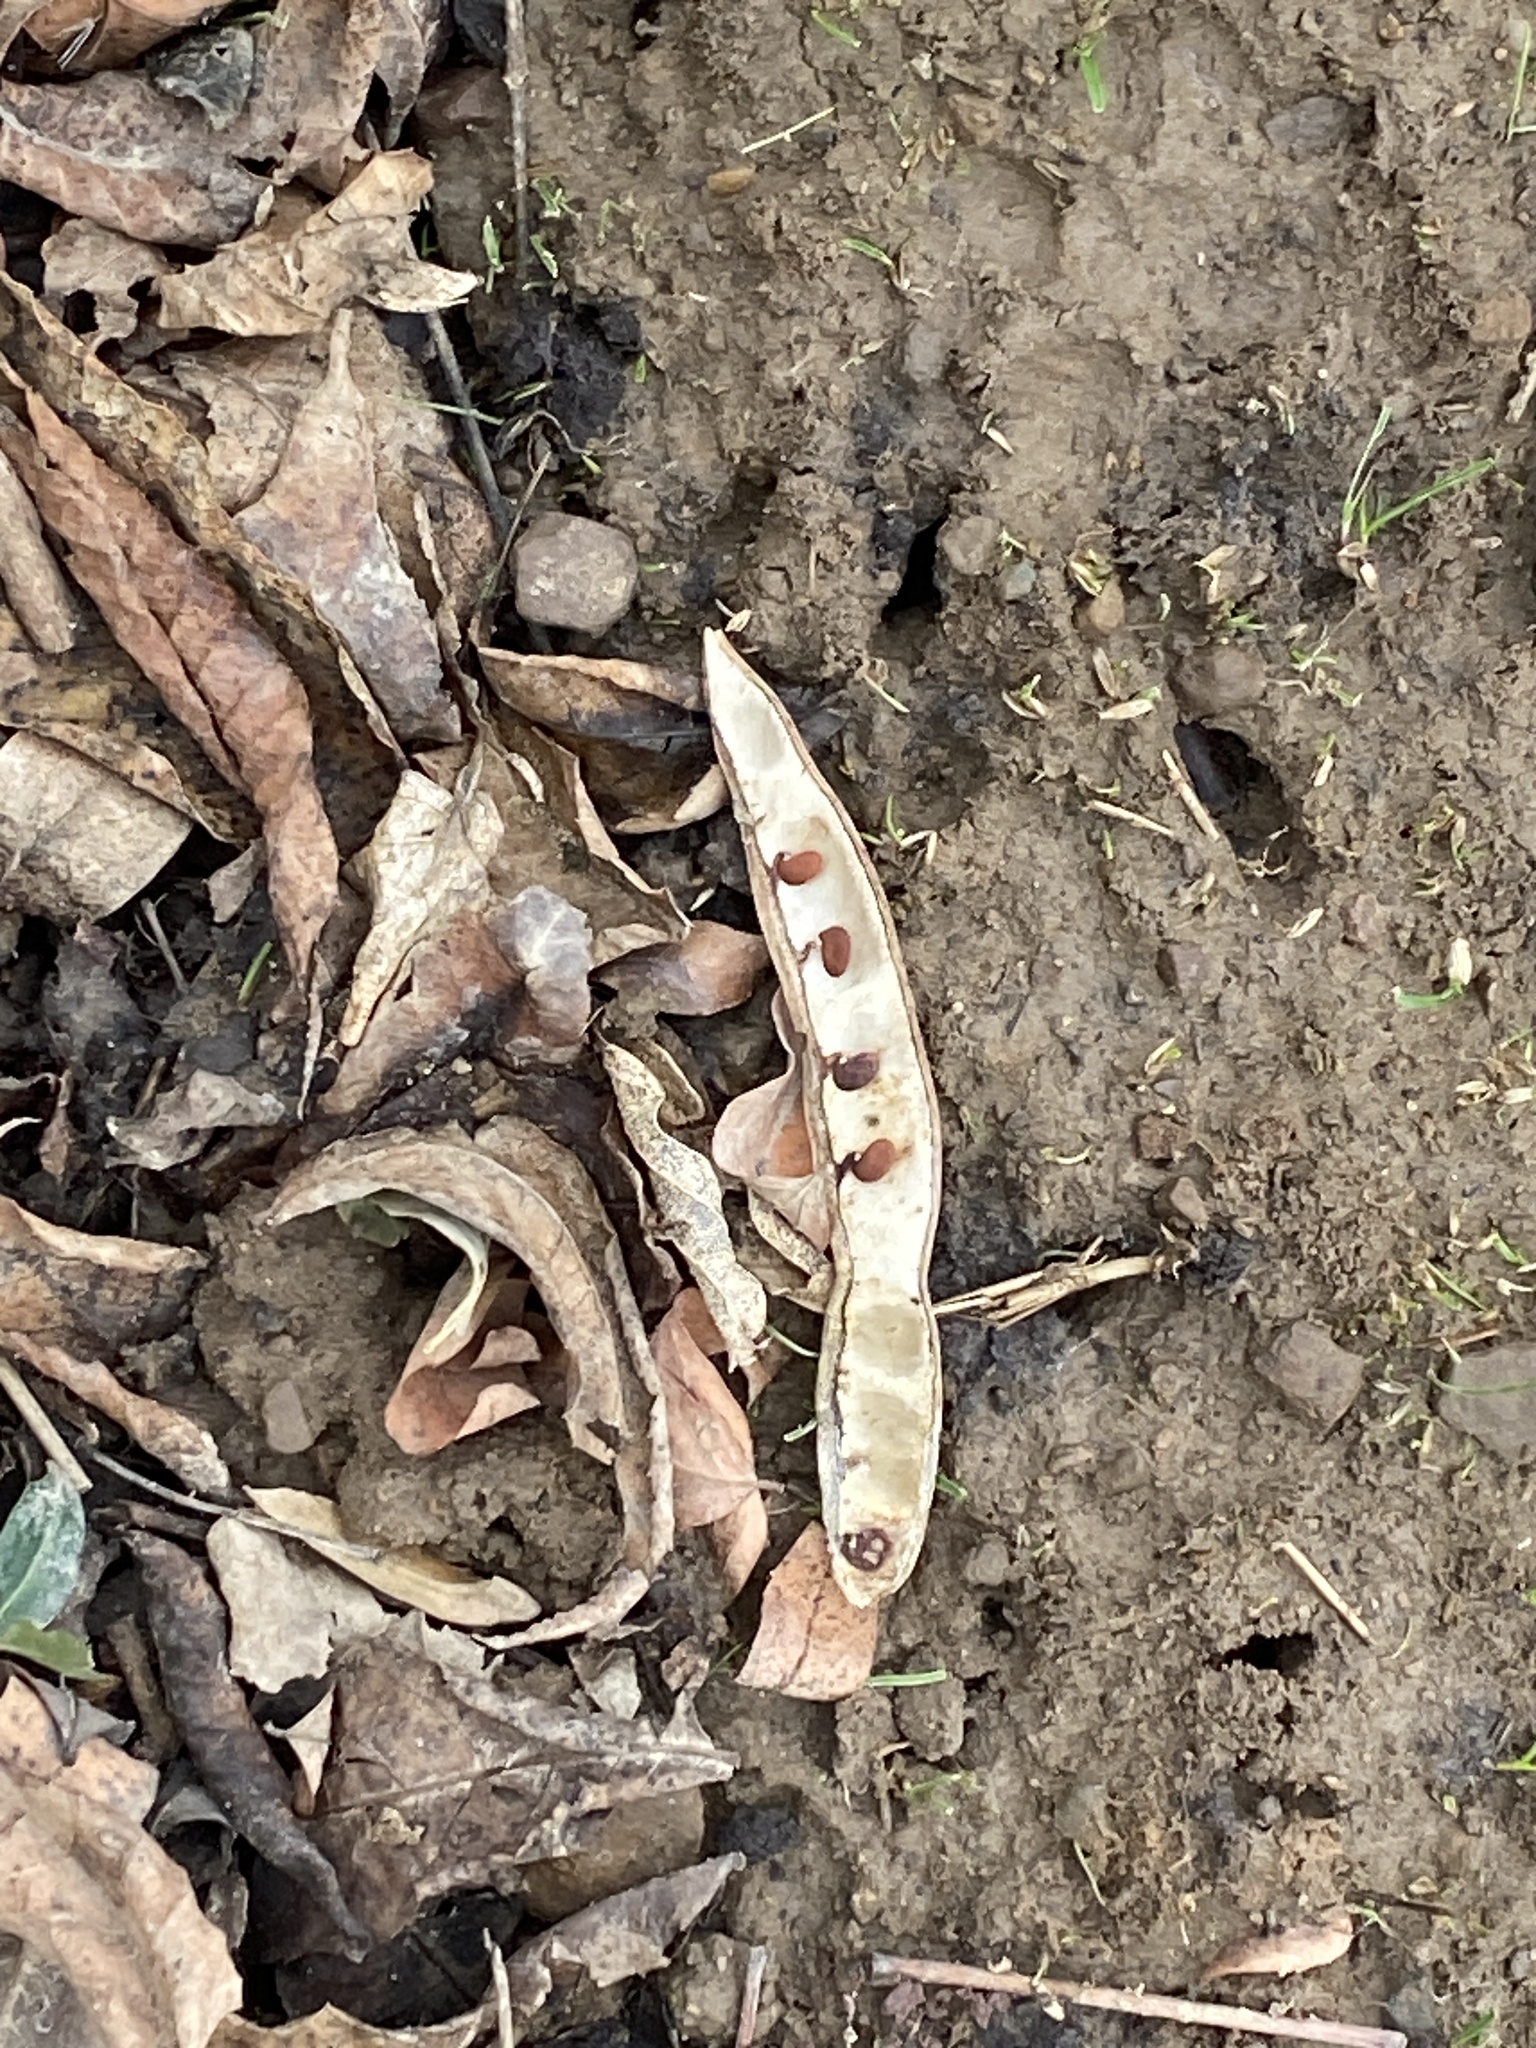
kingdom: Plantae
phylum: Tracheophyta
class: Magnoliopsida
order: Fabales
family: Fabaceae
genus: Robinia
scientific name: Robinia pseudoacacia
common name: Black locust
